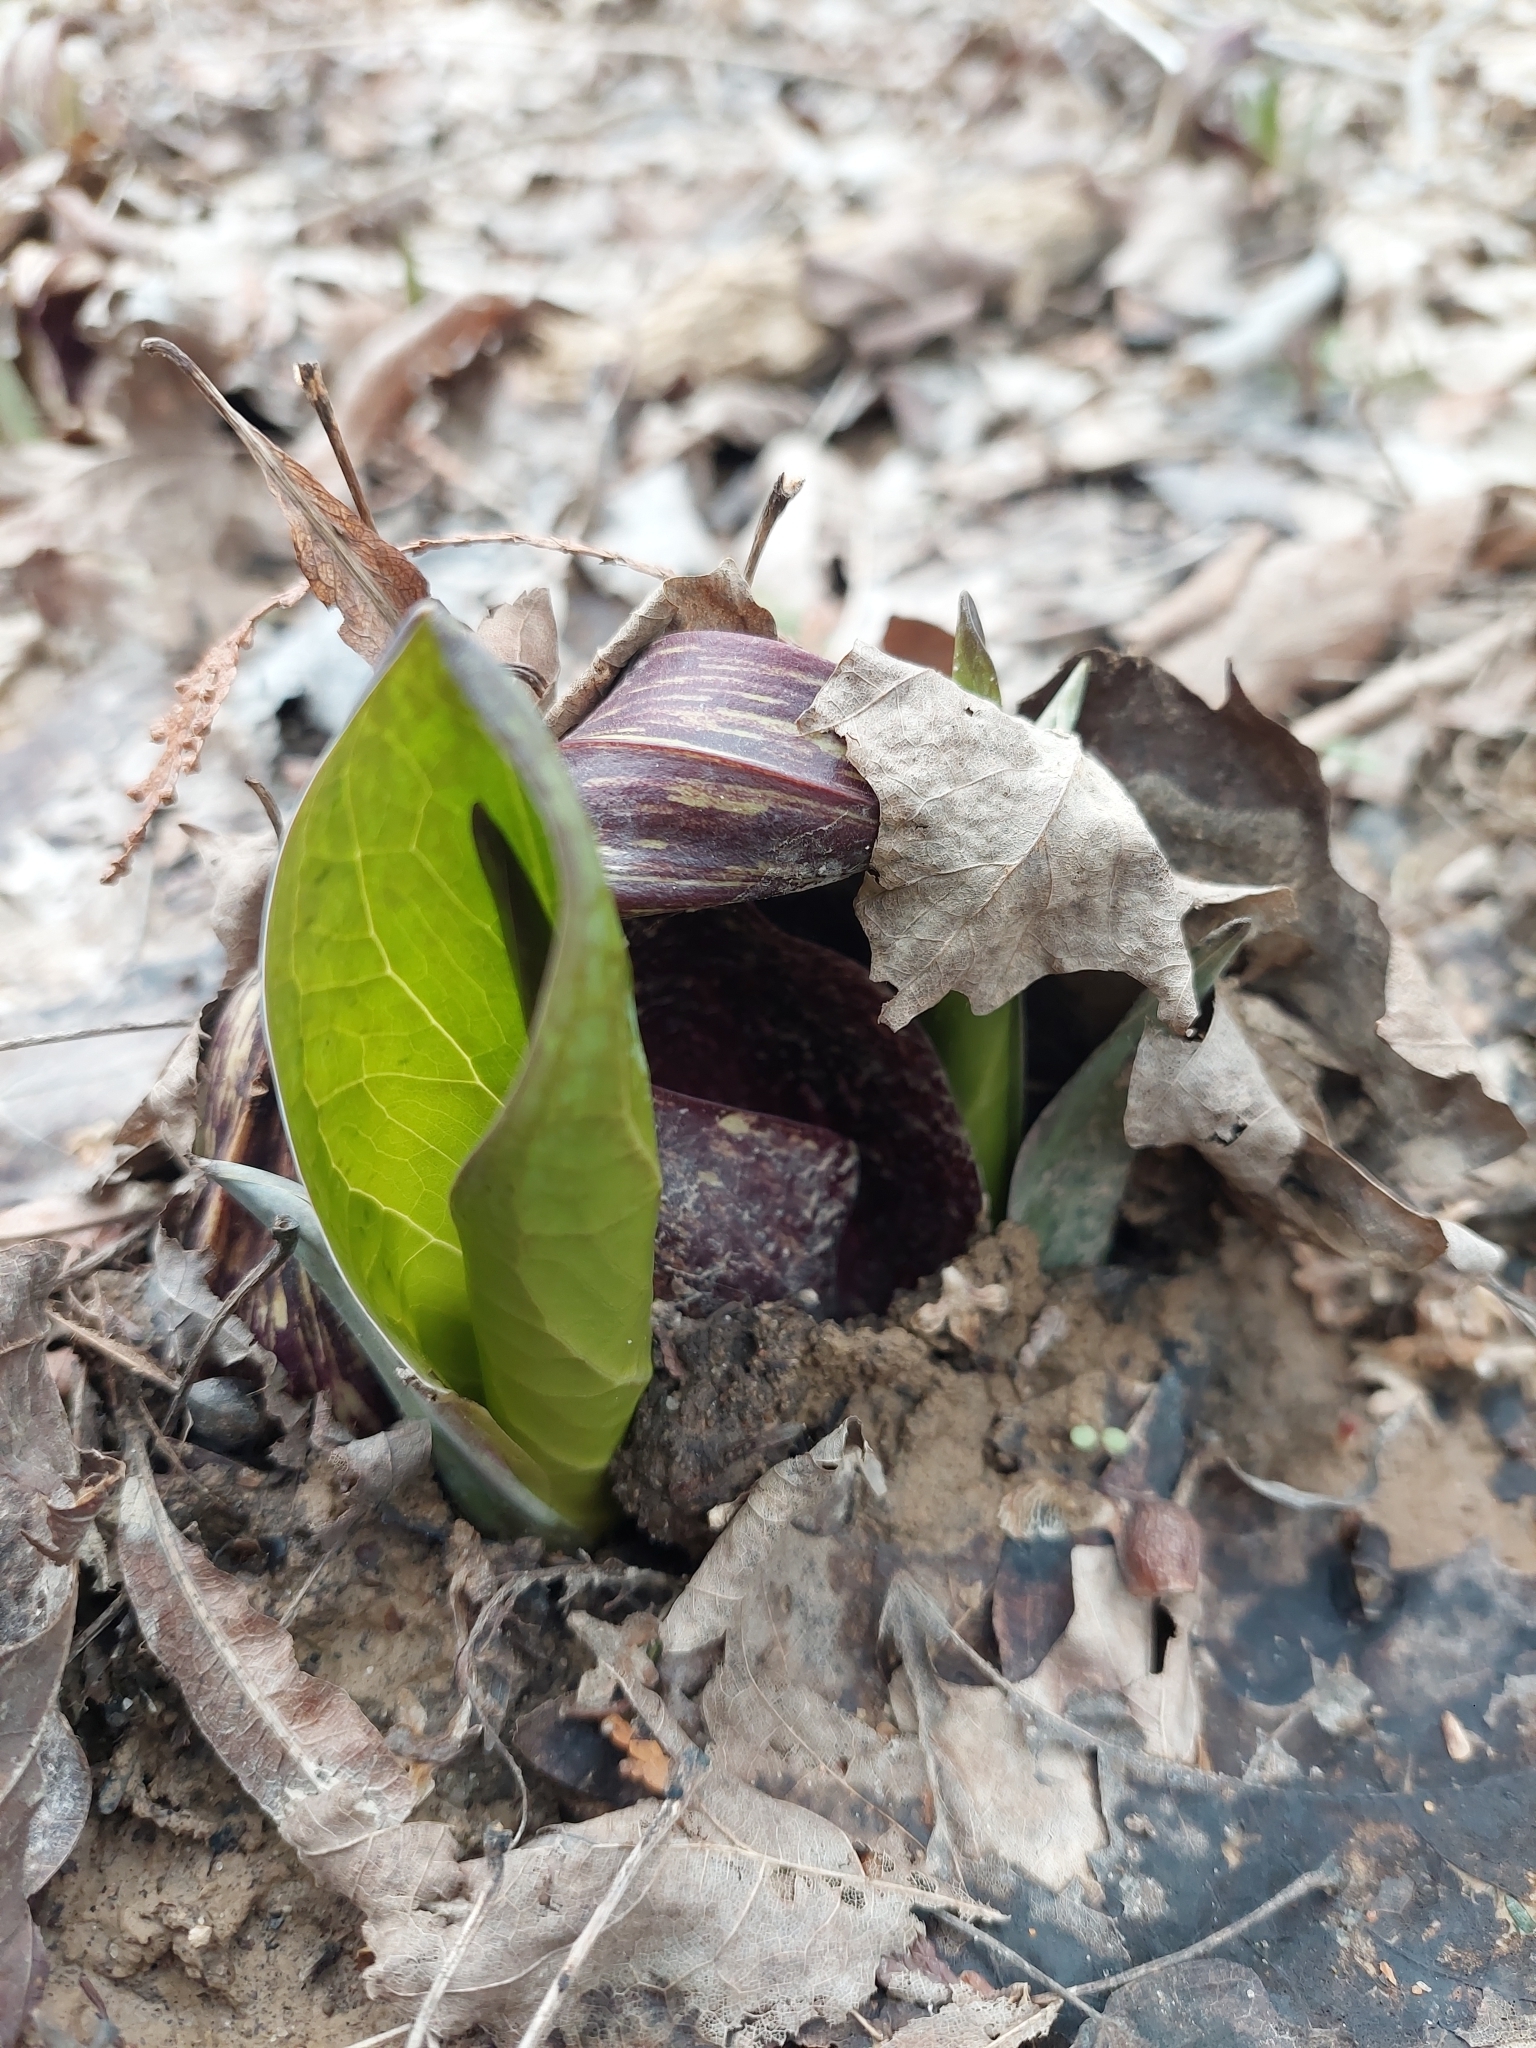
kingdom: Plantae
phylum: Tracheophyta
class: Liliopsida
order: Alismatales
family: Araceae
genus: Symplocarpus
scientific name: Symplocarpus foetidus
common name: Eastern skunk cabbage
